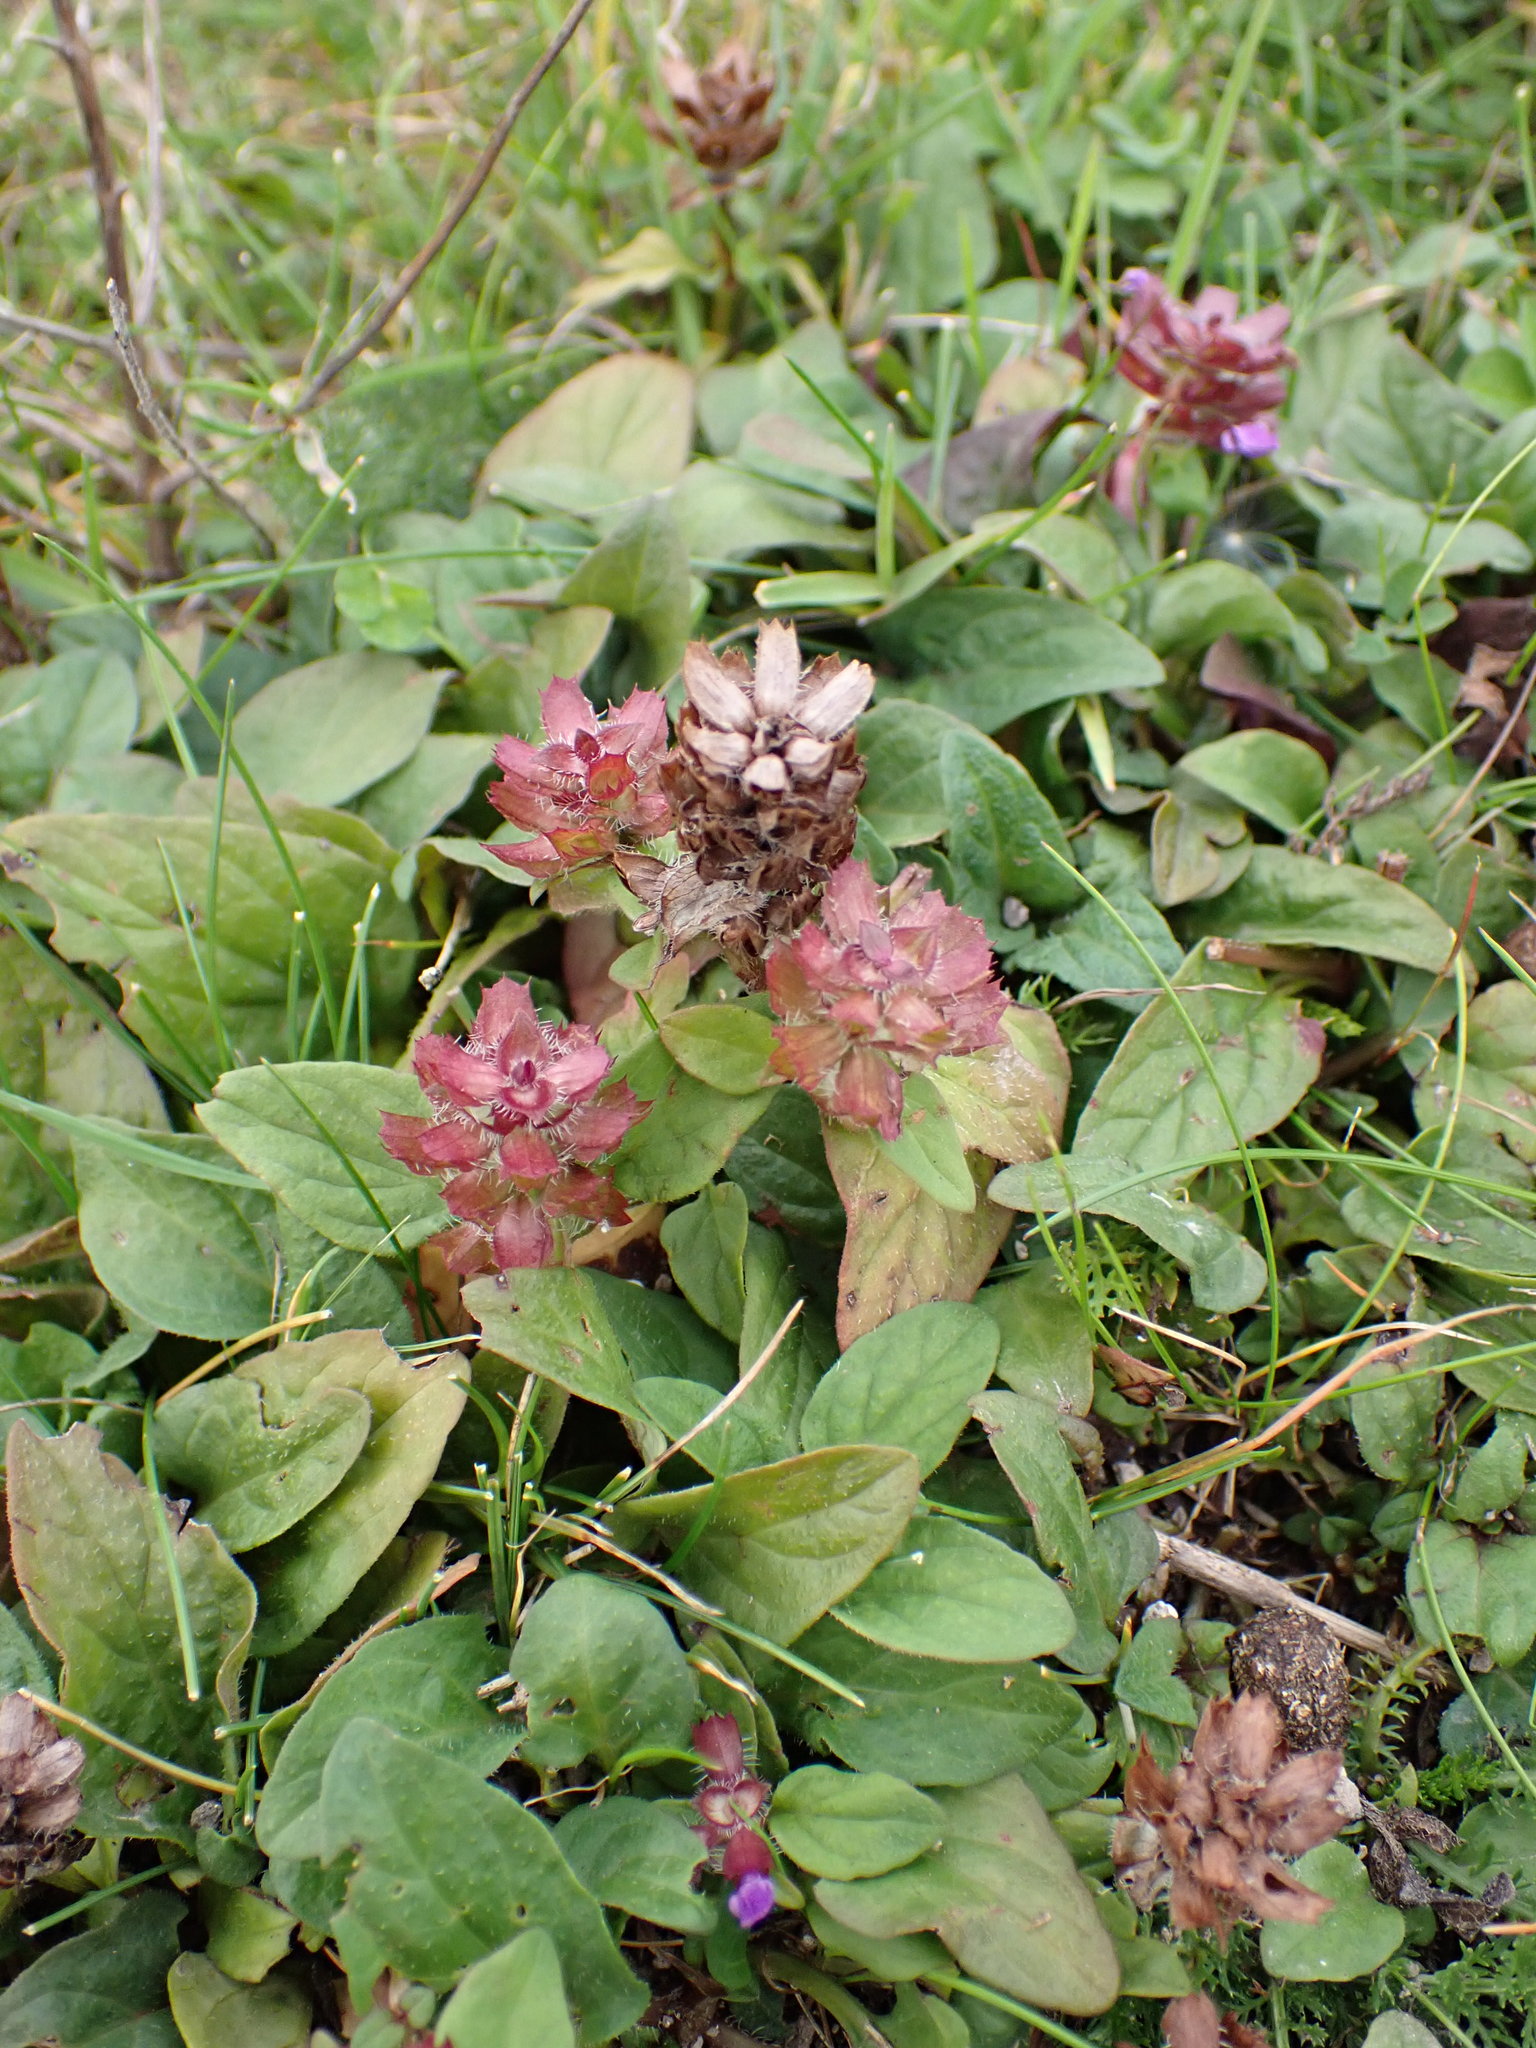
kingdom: Plantae
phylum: Tracheophyta
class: Magnoliopsida
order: Lamiales
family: Lamiaceae
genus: Prunella
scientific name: Prunella vulgaris
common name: Heal-all
